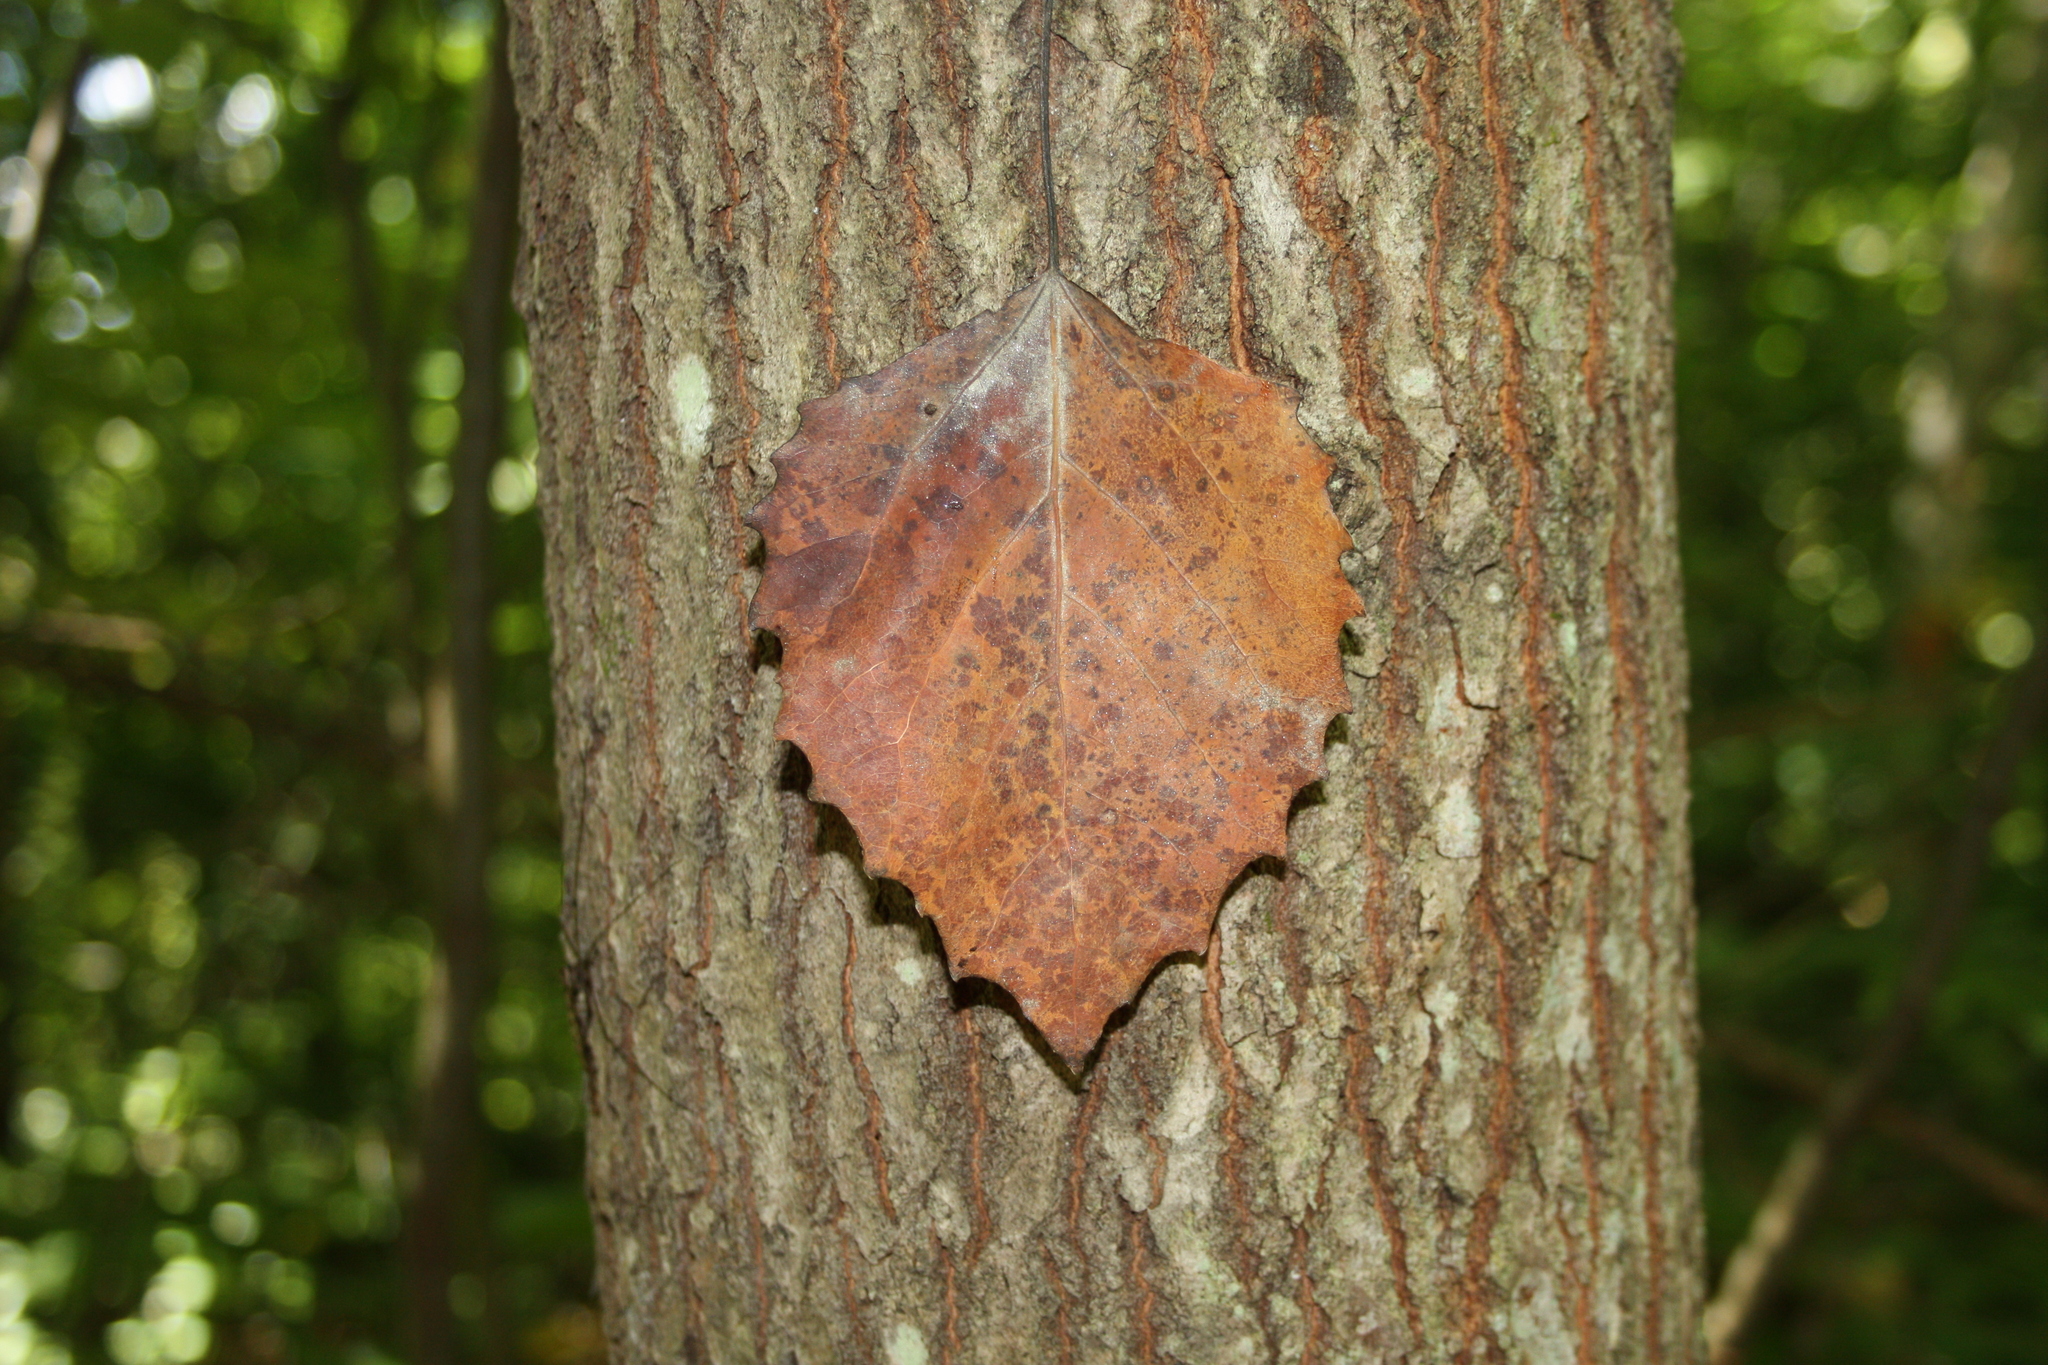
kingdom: Plantae
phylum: Tracheophyta
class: Magnoliopsida
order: Malpighiales
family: Salicaceae
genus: Populus
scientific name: Populus grandidentata
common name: Bigtooth aspen
